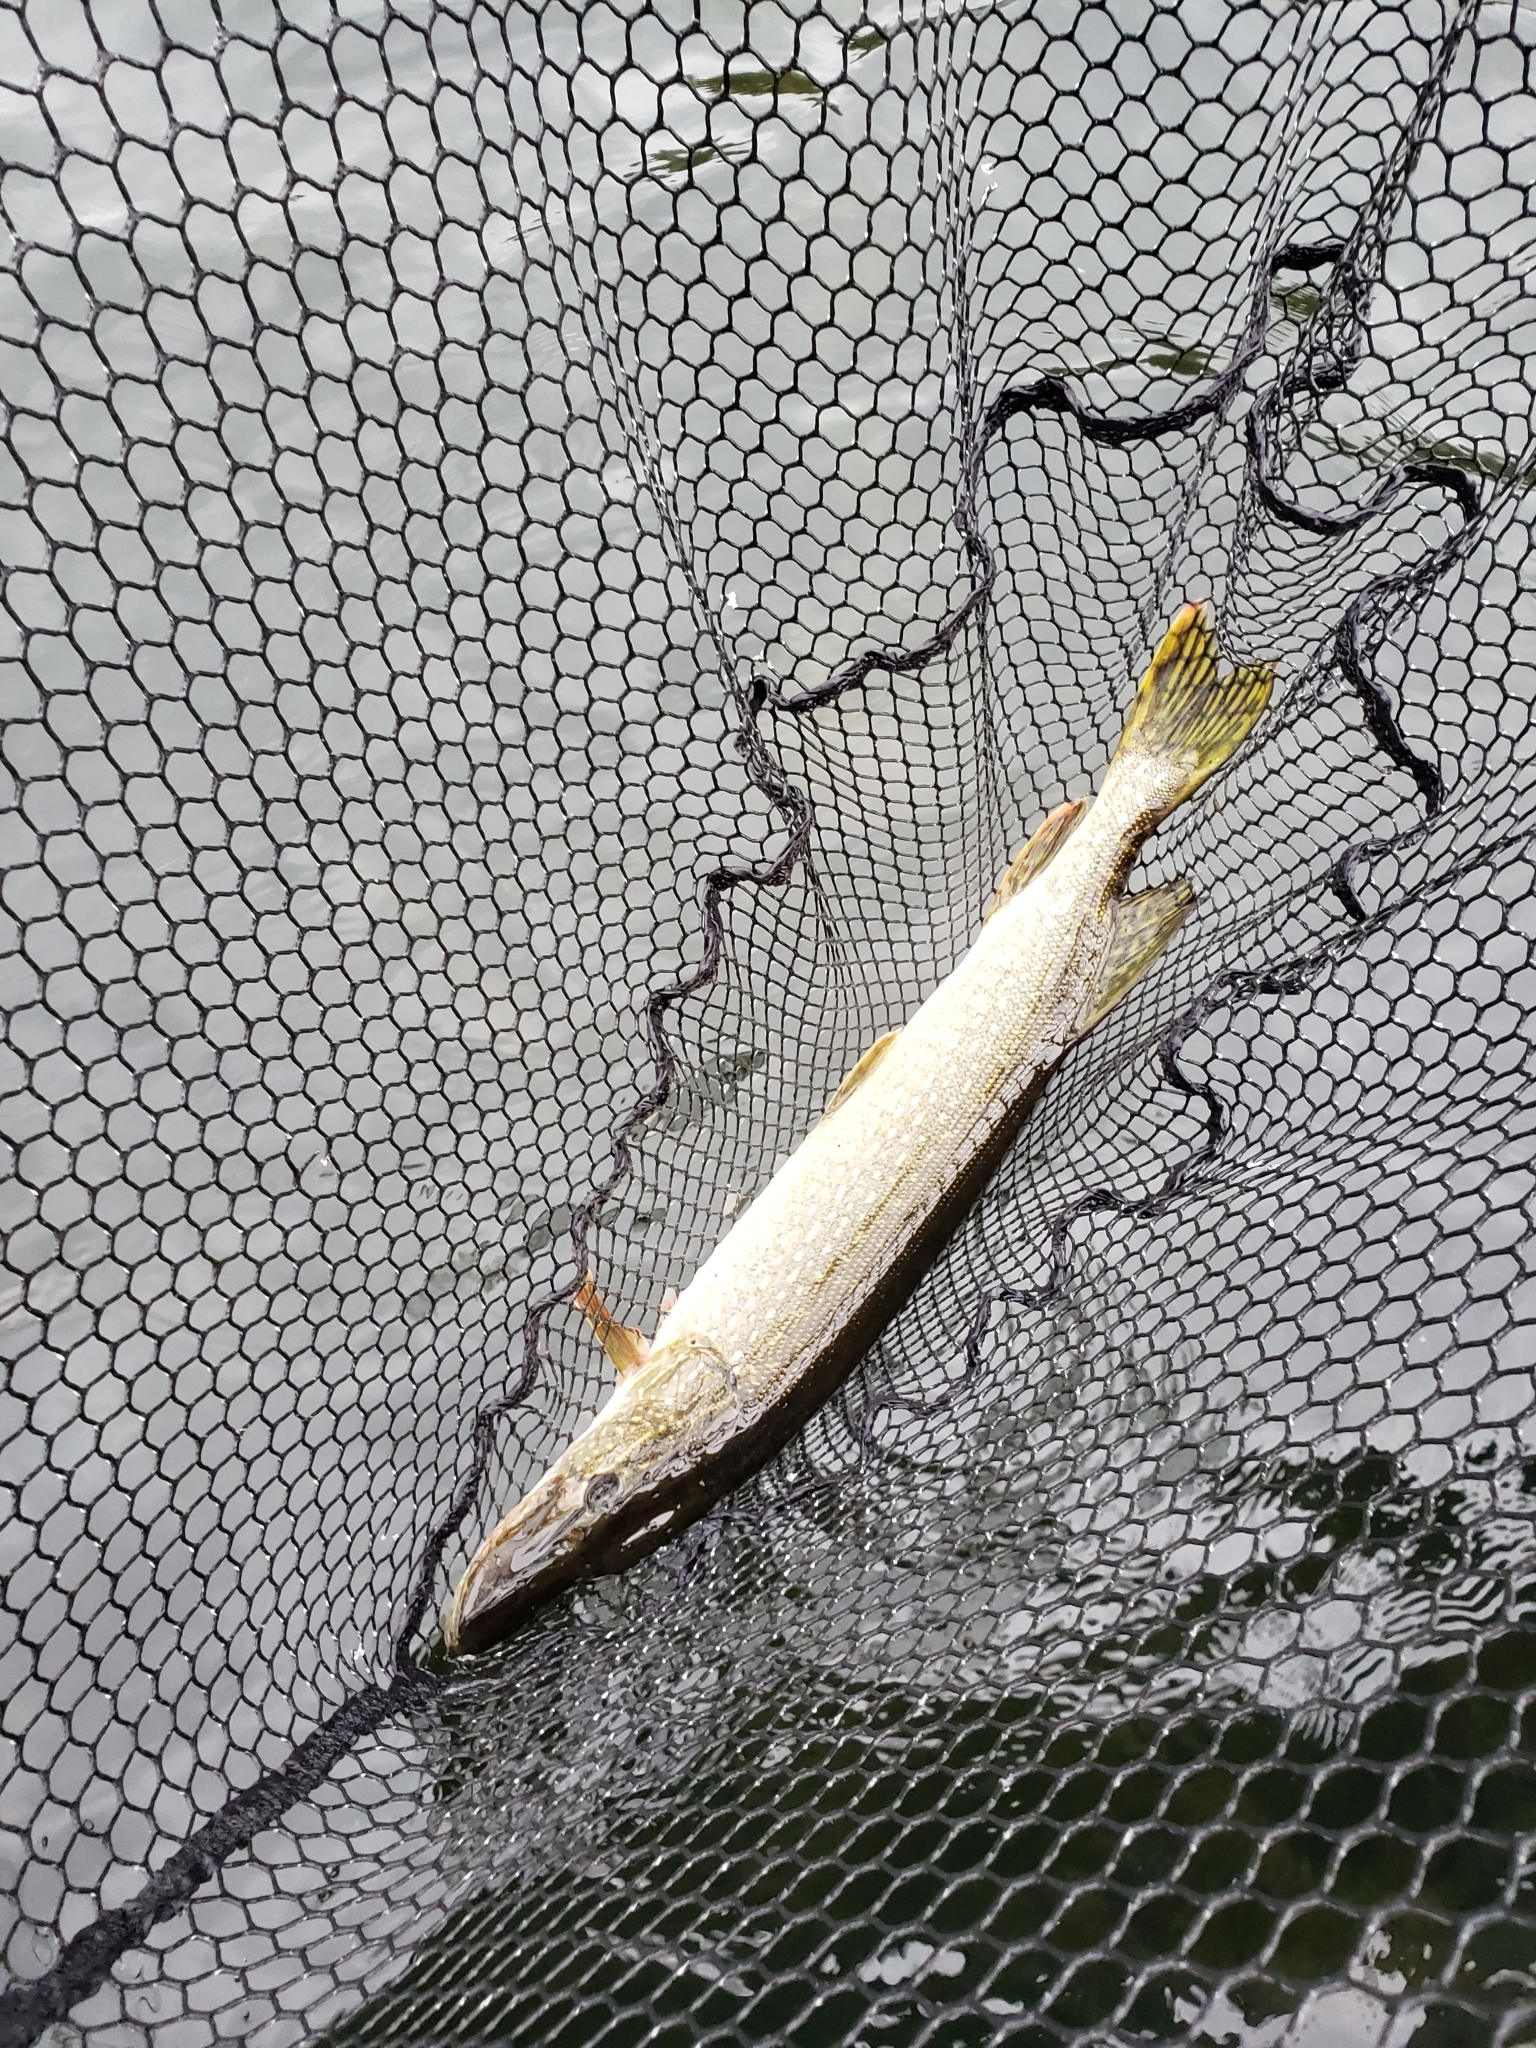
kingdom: Animalia
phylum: Chordata
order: Esociformes
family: Esocidae
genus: Esox
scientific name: Esox lucius
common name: Northern pike
